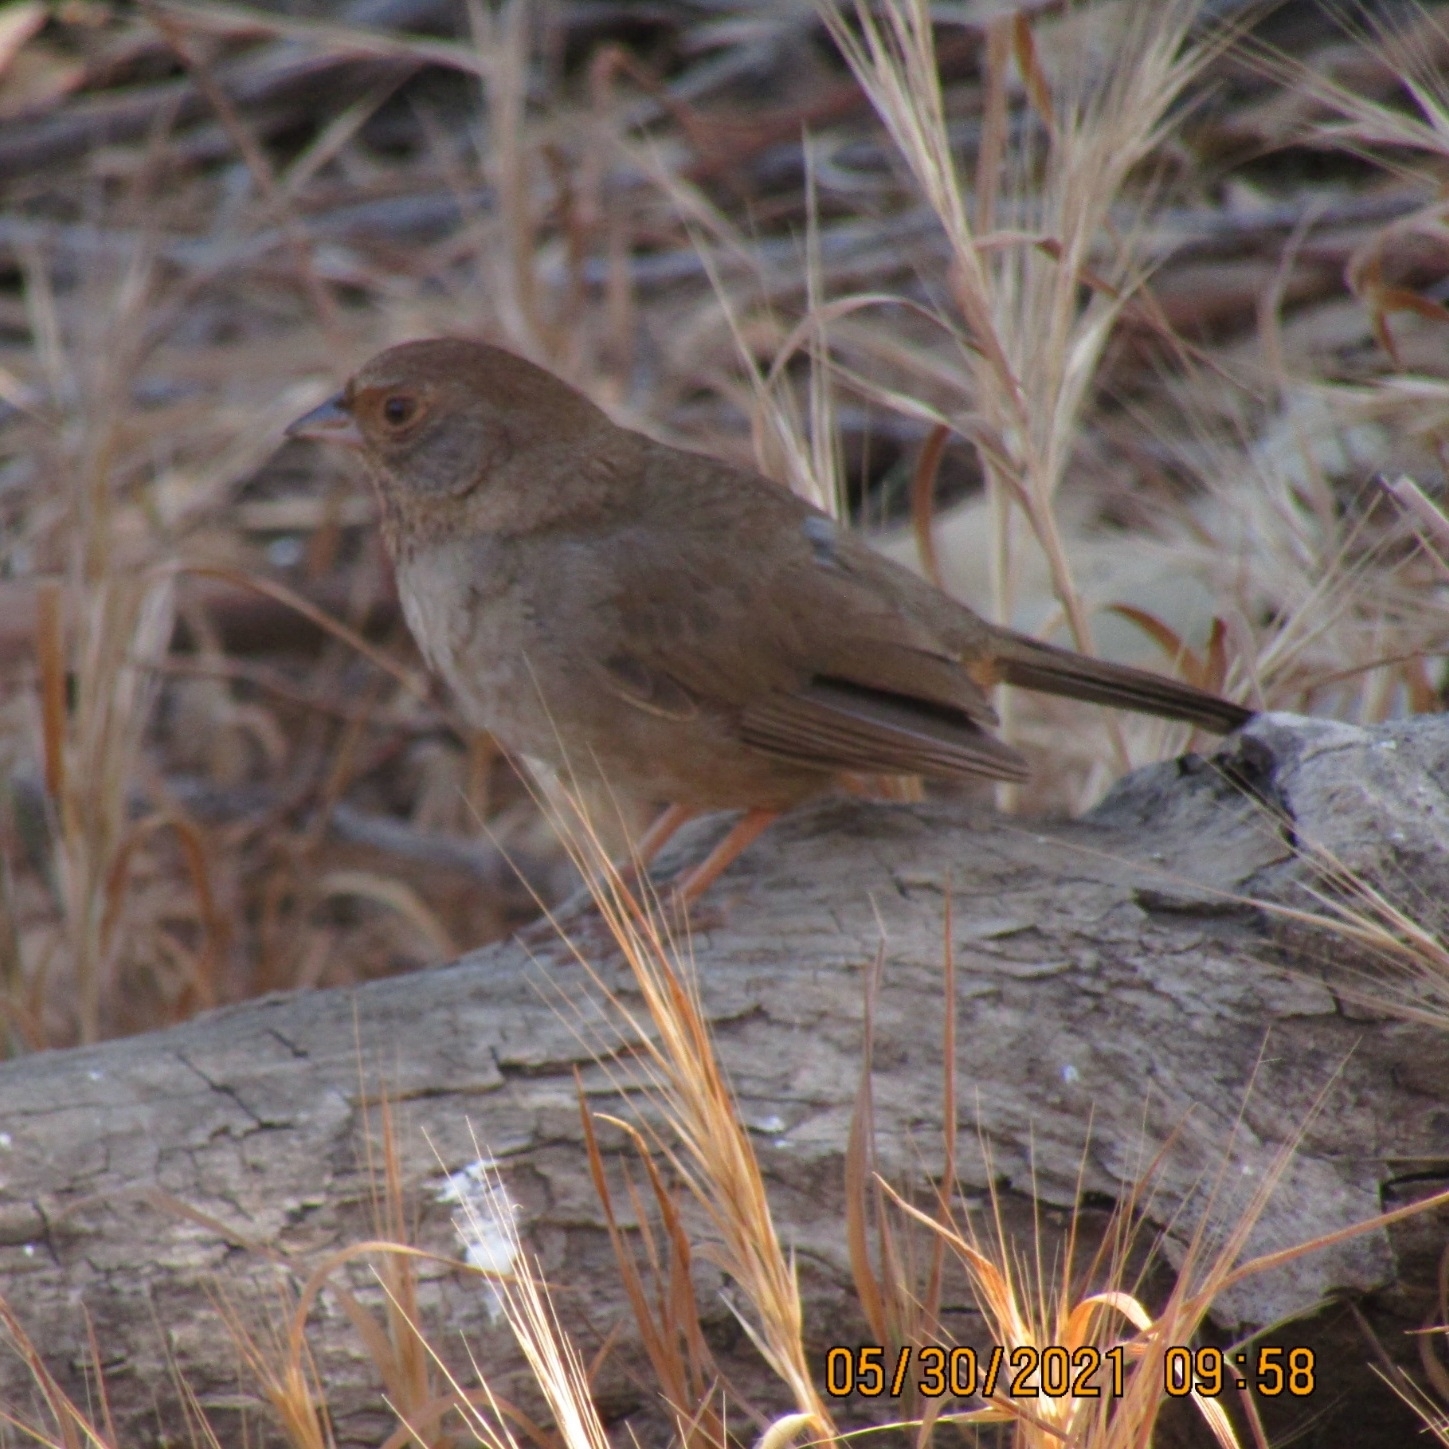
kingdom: Animalia
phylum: Chordata
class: Aves
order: Passeriformes
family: Passerellidae
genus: Melozone
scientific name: Melozone crissalis
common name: California towhee
